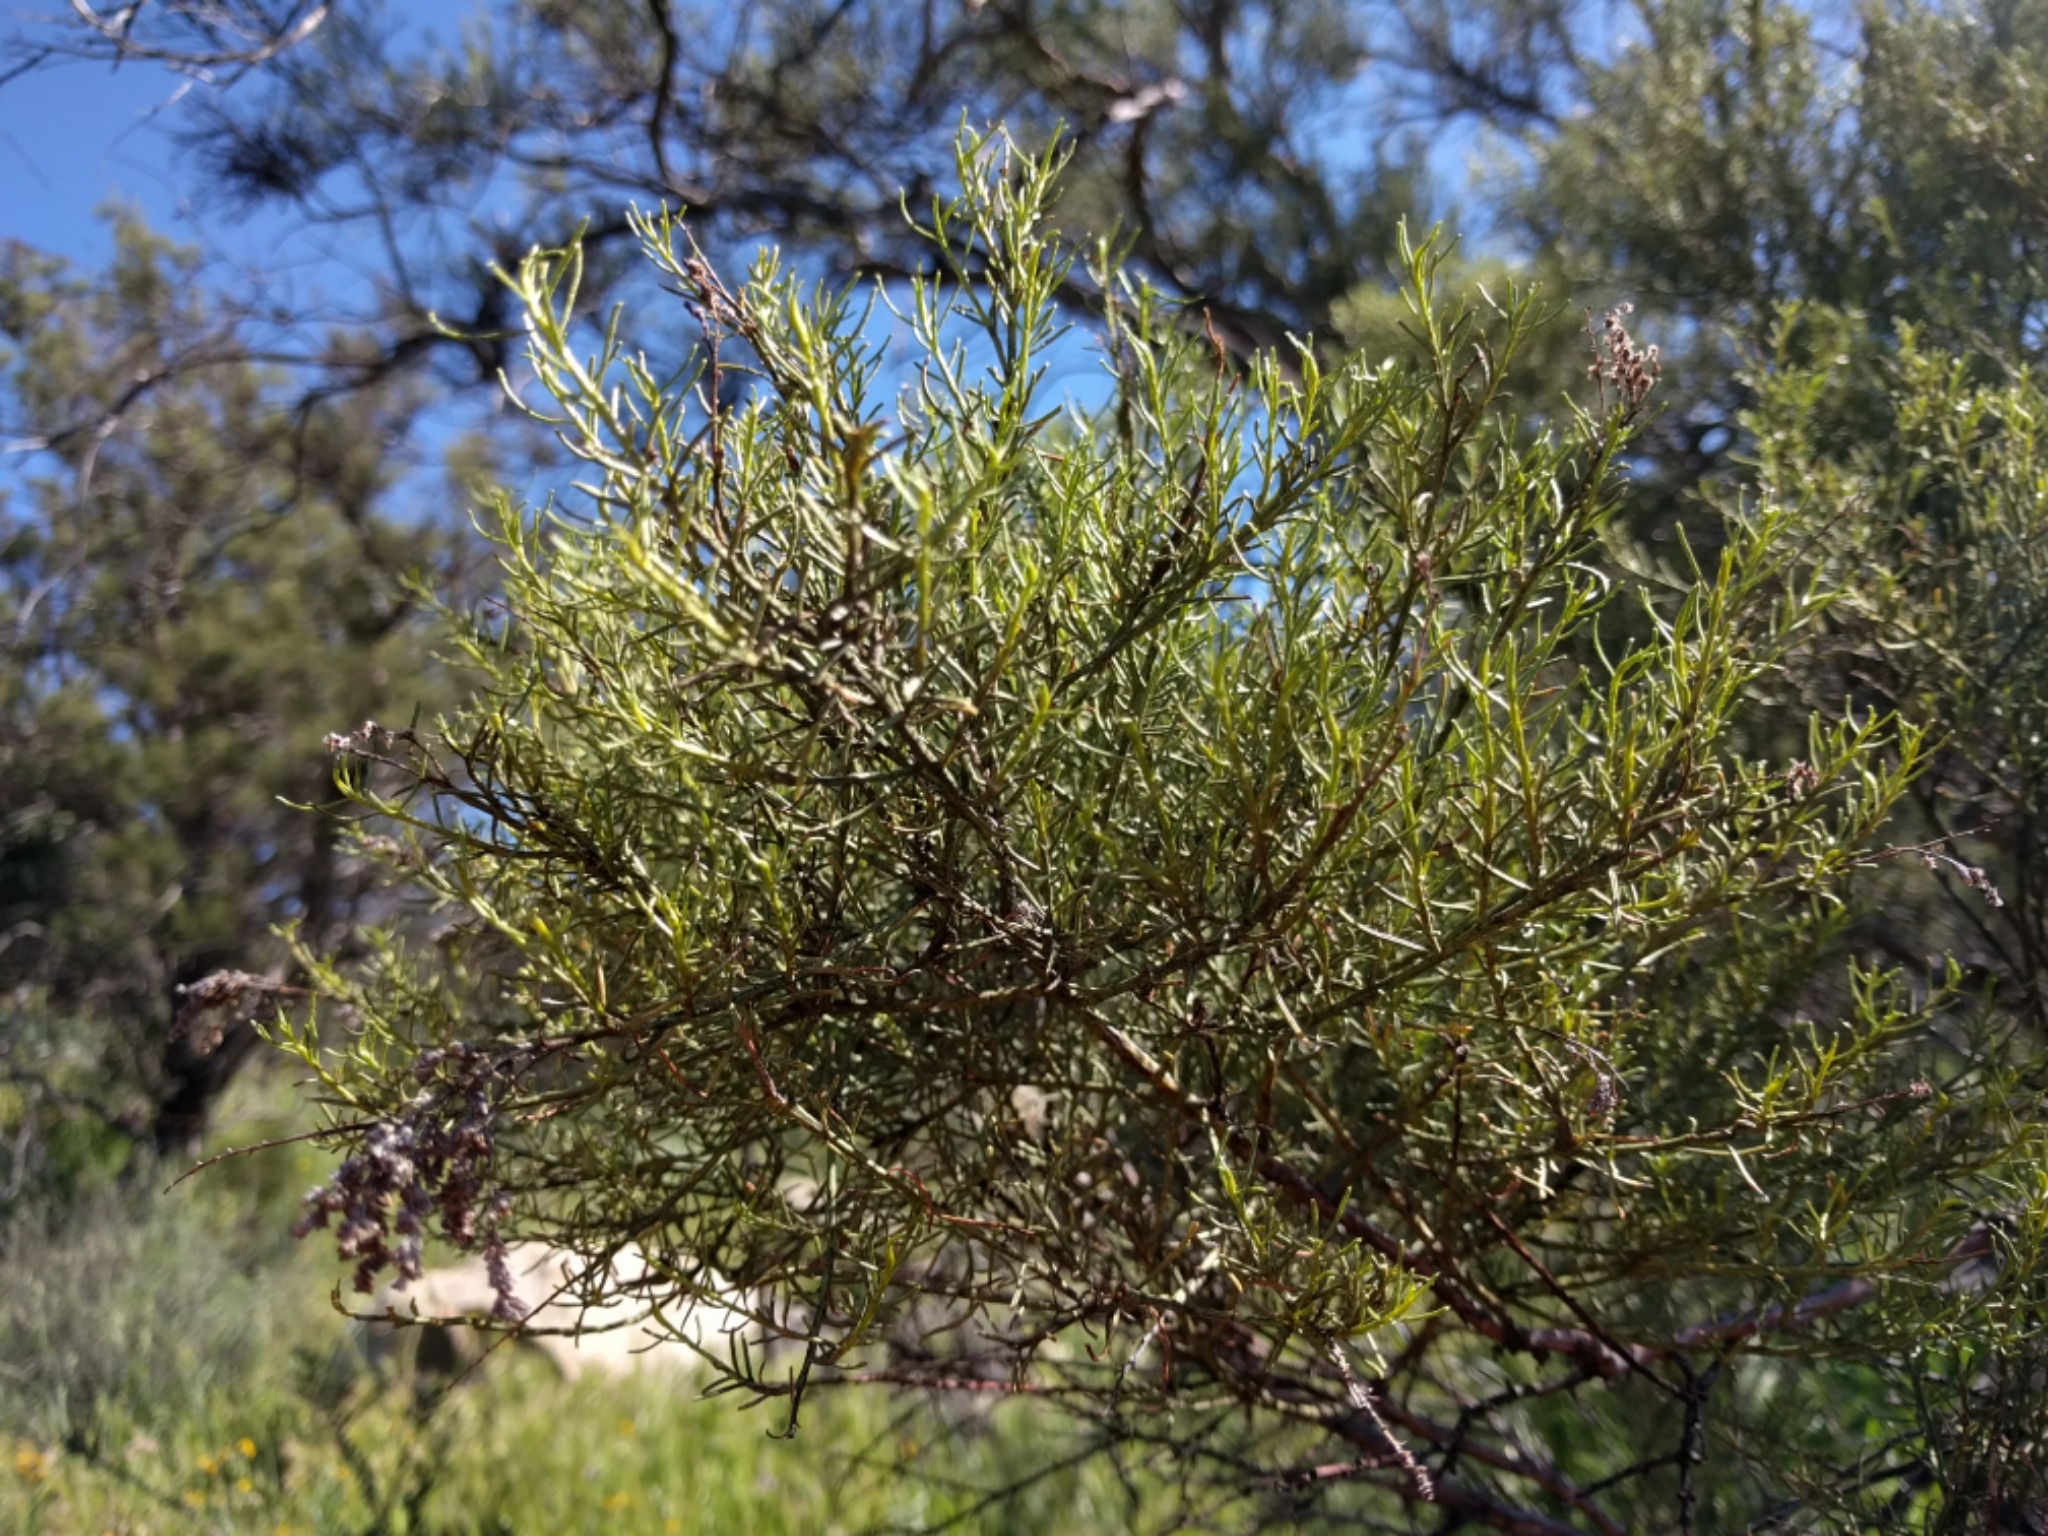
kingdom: Plantae
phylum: Tracheophyta
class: Magnoliopsida
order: Rosales
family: Rosaceae
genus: Adenostoma
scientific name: Adenostoma sparsifolium
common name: Red shank
